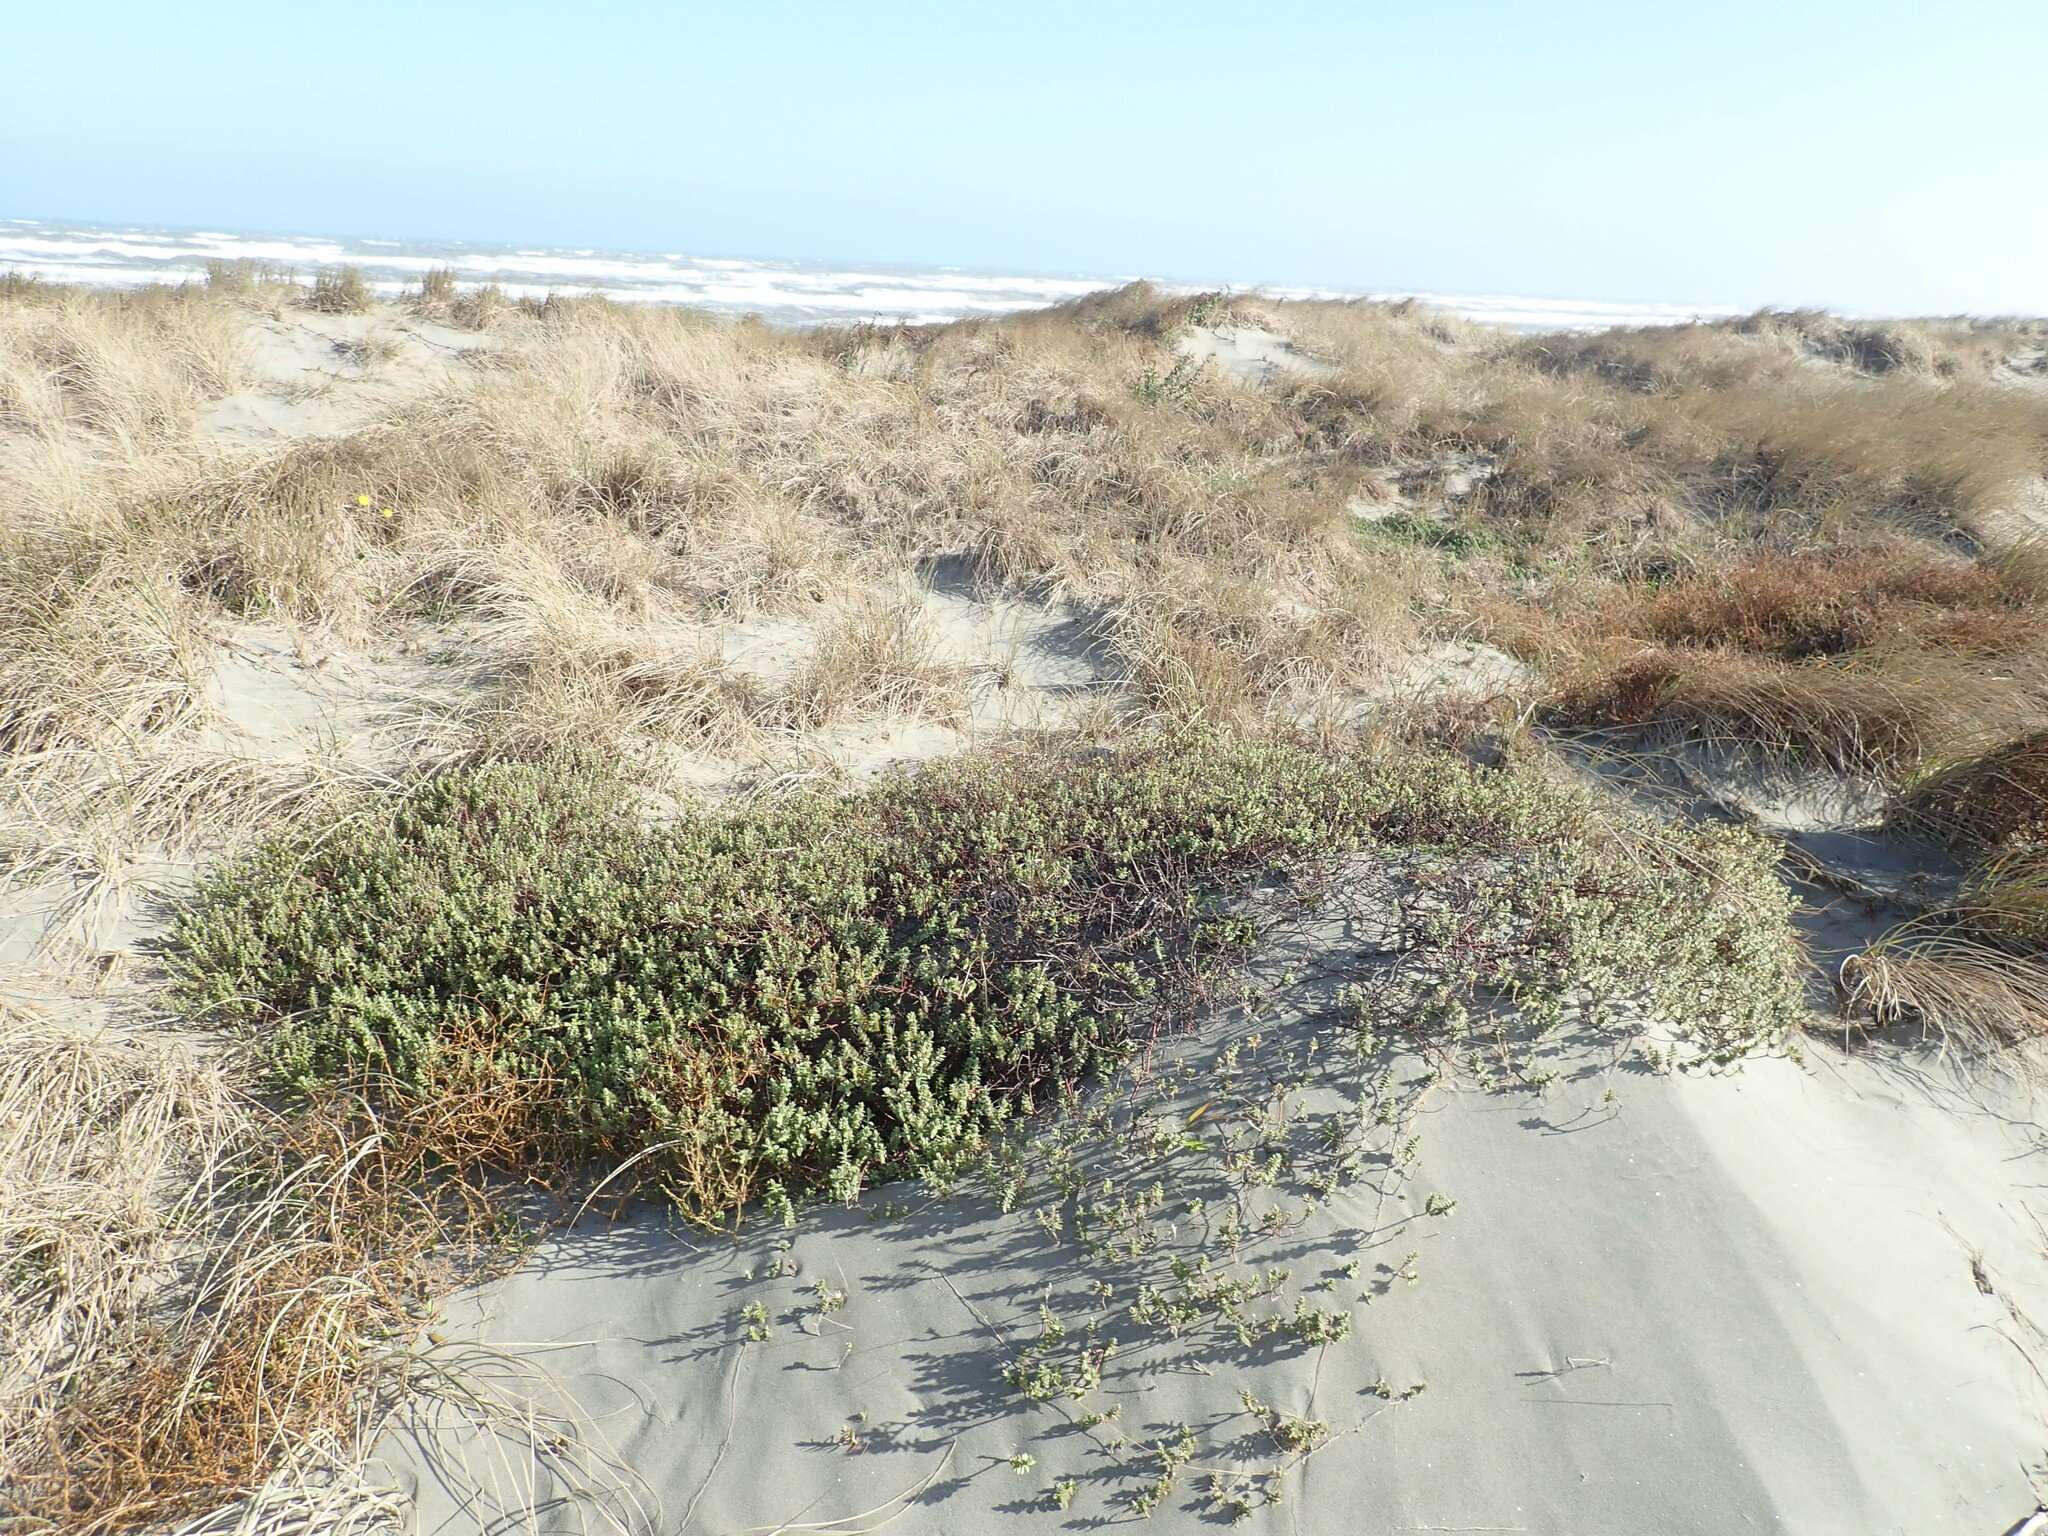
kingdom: Plantae
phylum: Tracheophyta
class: Magnoliopsida
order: Malvales
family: Thymelaeaceae
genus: Pimelea
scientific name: Pimelea villosa
